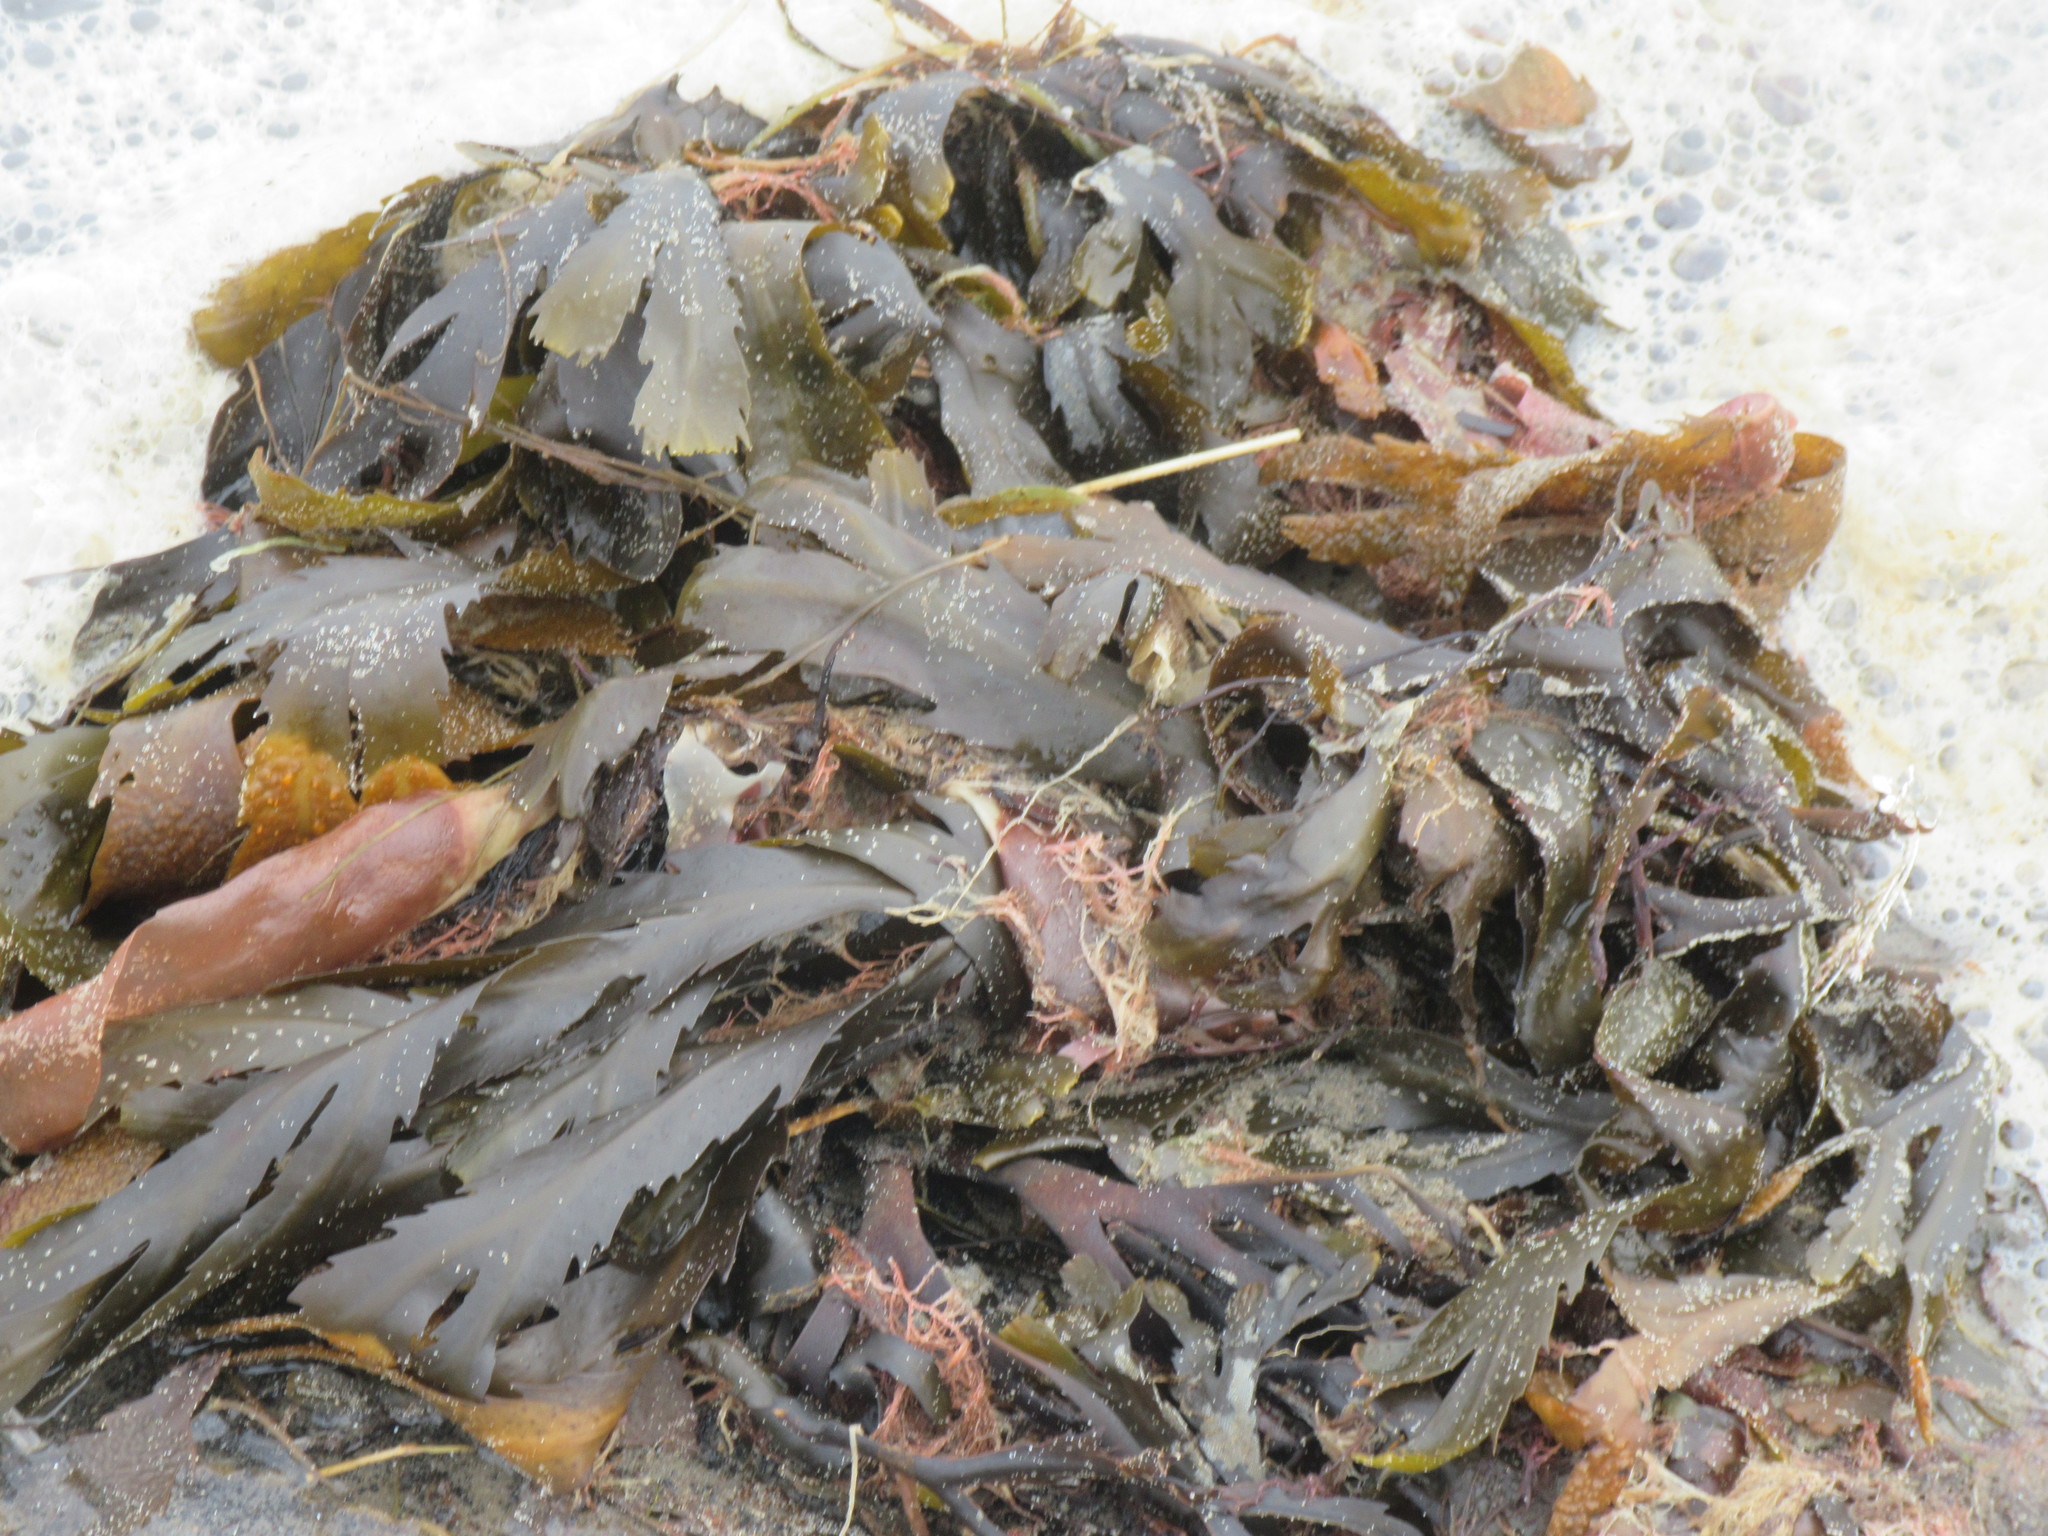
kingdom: Chromista
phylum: Ochrophyta
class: Phaeophyceae
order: Fucales
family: Fucaceae
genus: Fucus
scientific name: Fucus serratus
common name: Toothed wrack
